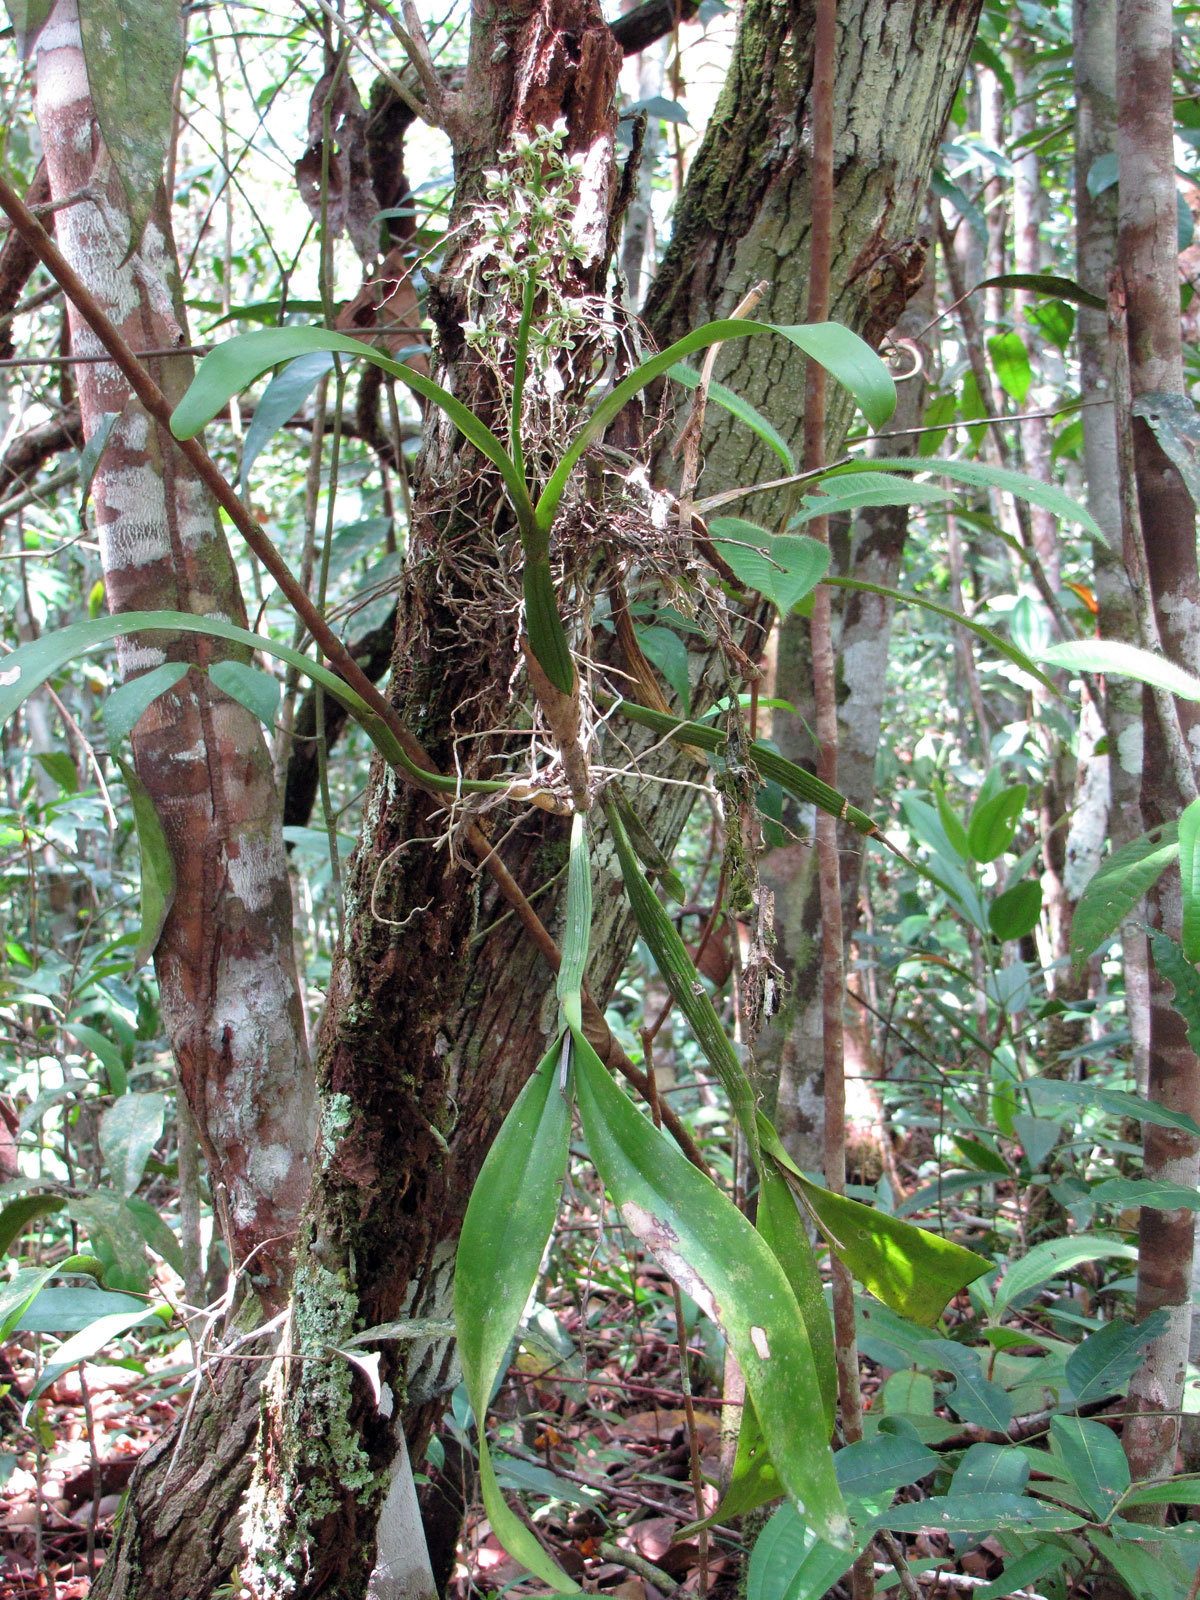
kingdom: Plantae
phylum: Tracheophyta
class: Liliopsida
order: Asparagales
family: Orchidaceae
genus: Prosthechea
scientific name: Prosthechea vespa
